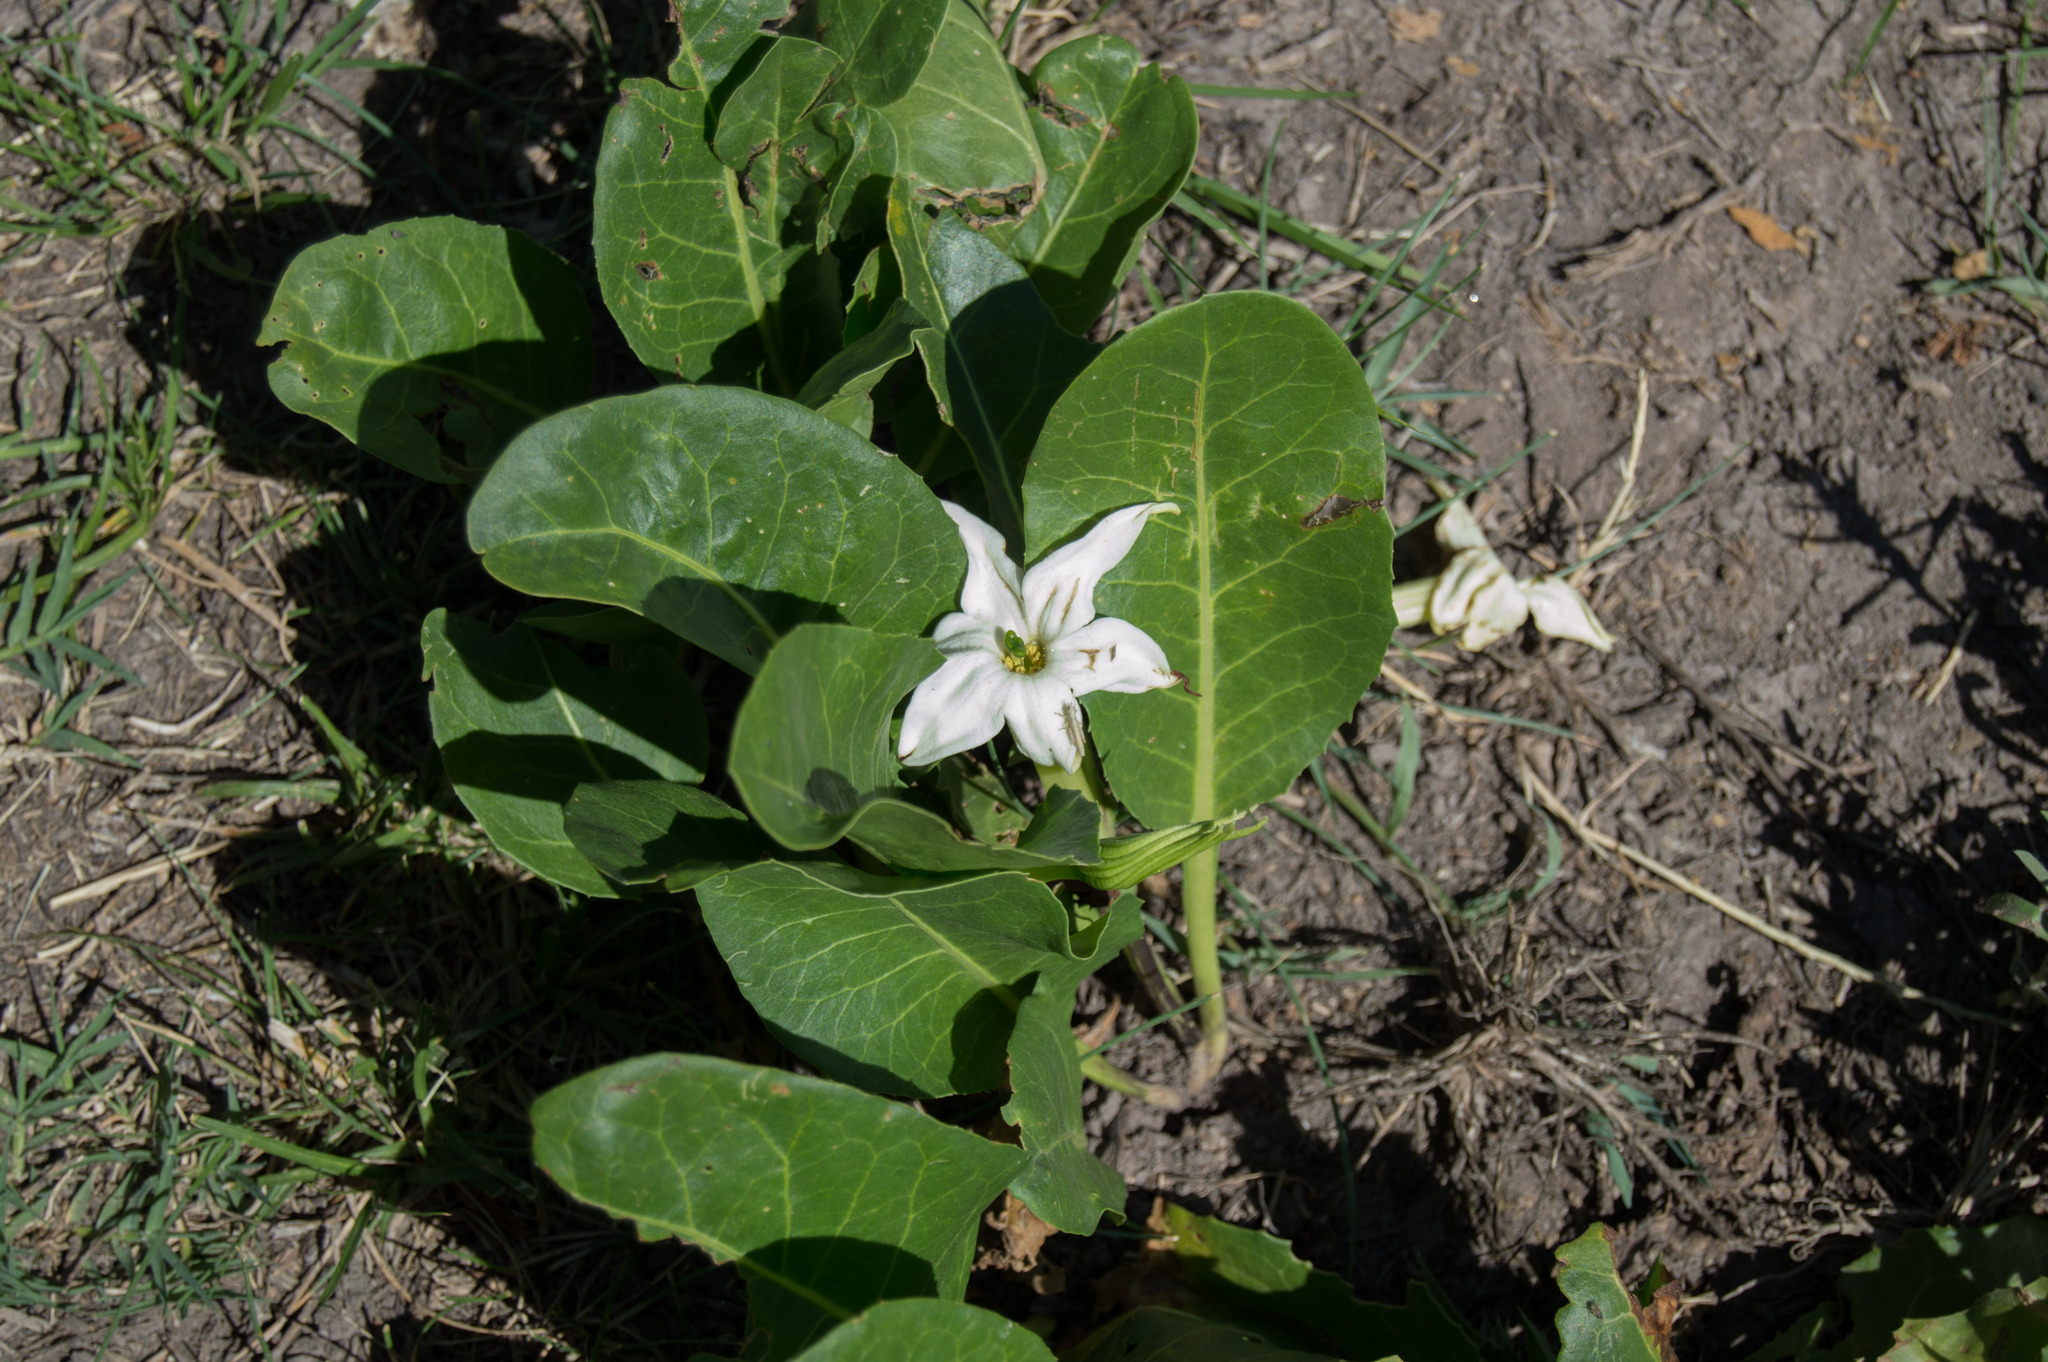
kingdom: Plantae
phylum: Tracheophyta
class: Magnoliopsida
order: Solanales
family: Solanaceae
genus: Jaborosa
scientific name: Jaborosa integrifolia
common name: Springblossom
